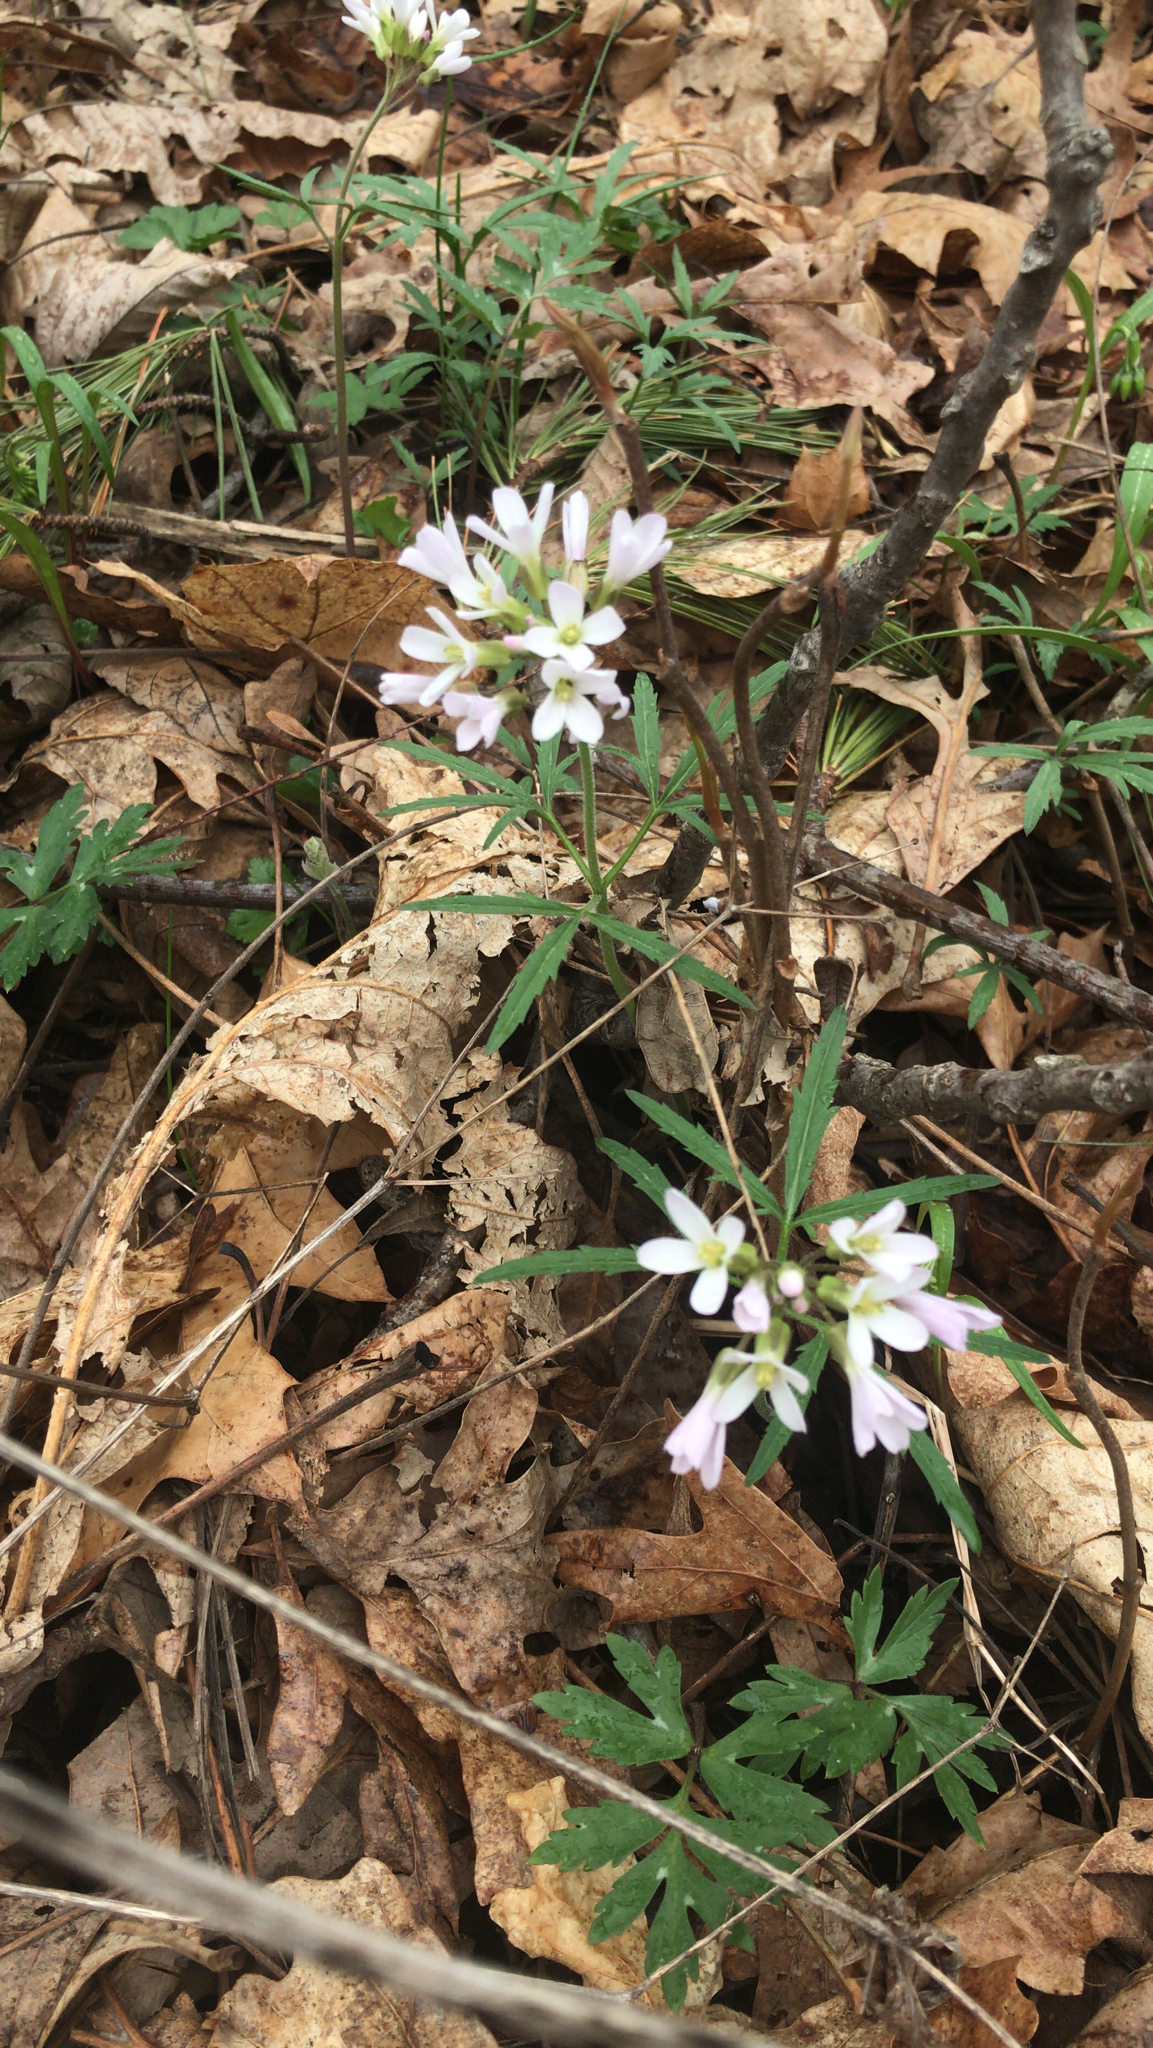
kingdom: Plantae
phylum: Tracheophyta
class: Magnoliopsida
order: Brassicales
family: Brassicaceae
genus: Cardamine
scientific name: Cardamine concatenata
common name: Cut-leaf toothcup
